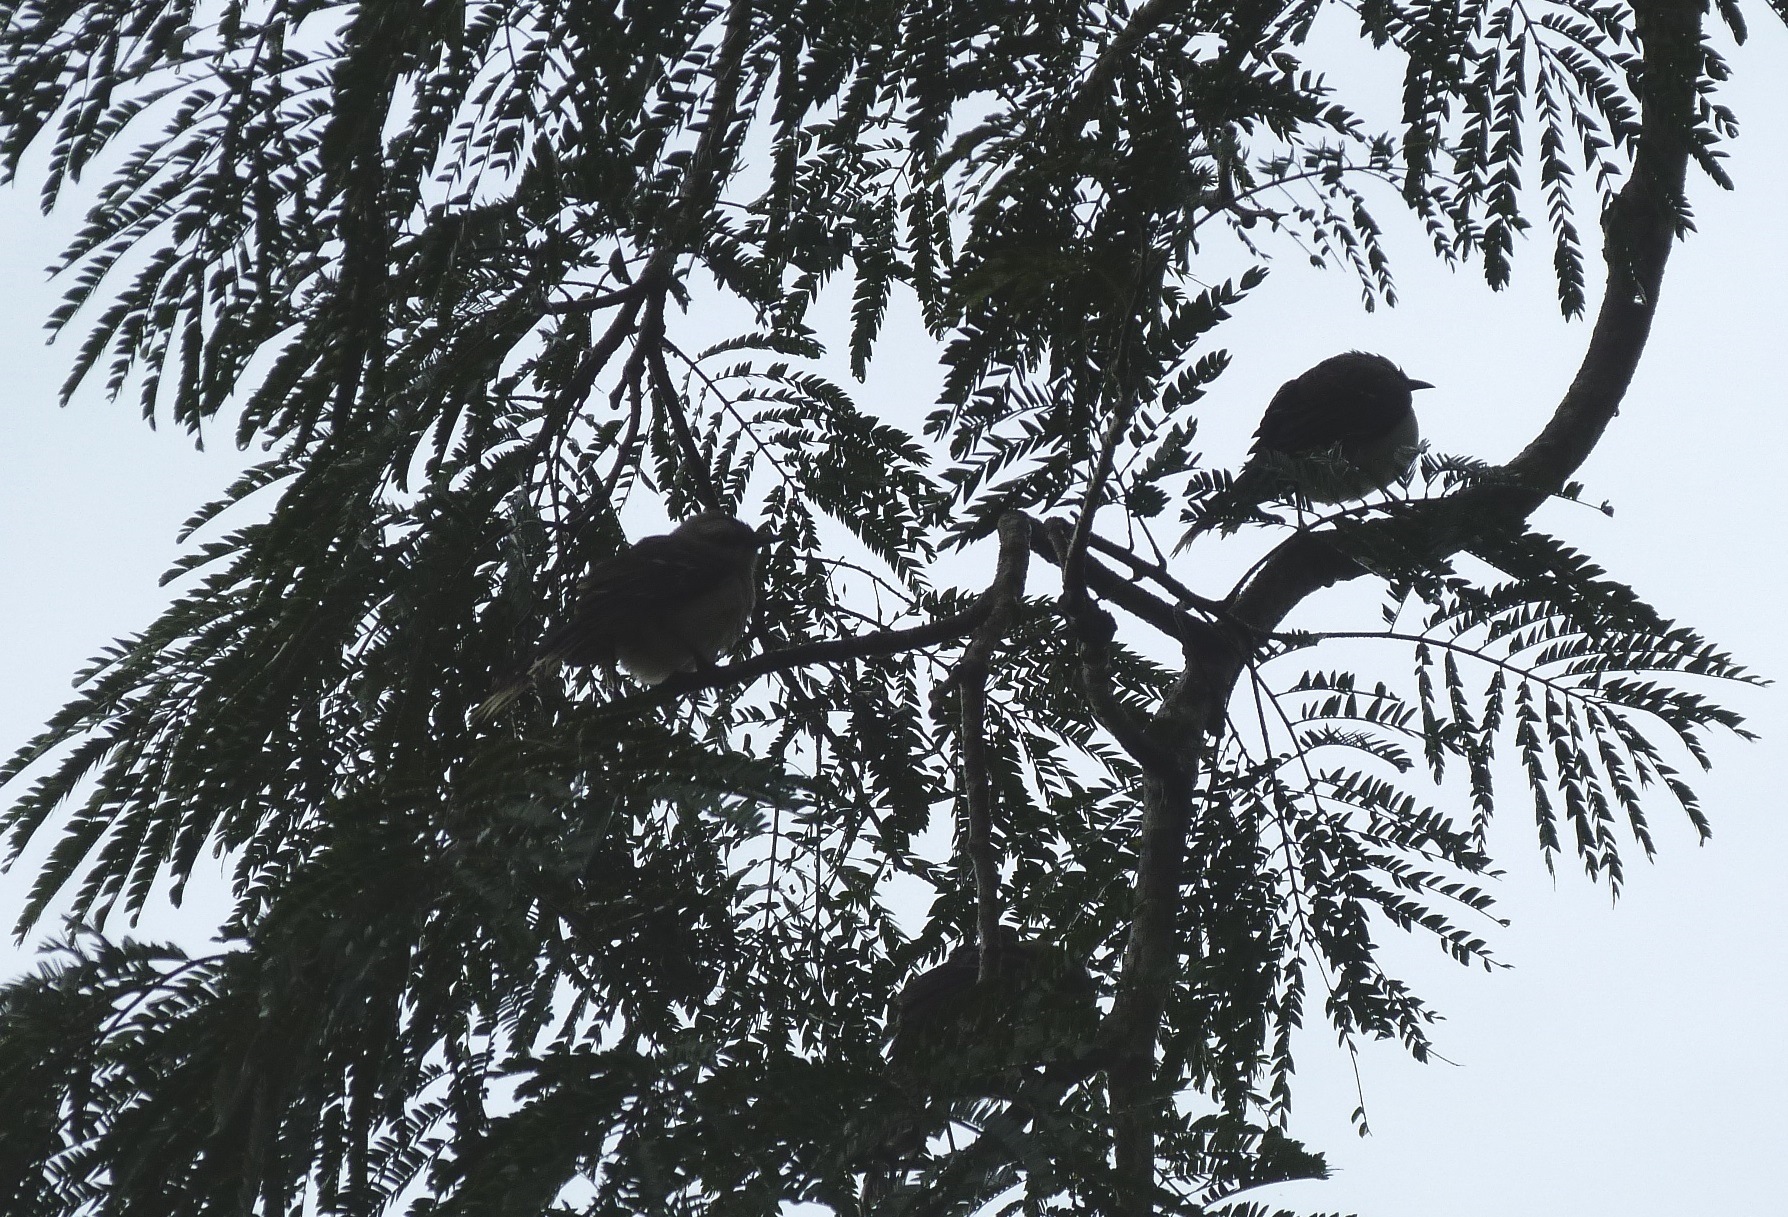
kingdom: Plantae
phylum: Tracheophyta
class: Magnoliopsida
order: Lamiales
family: Bignoniaceae
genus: Jacaranda
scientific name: Jacaranda copaia
